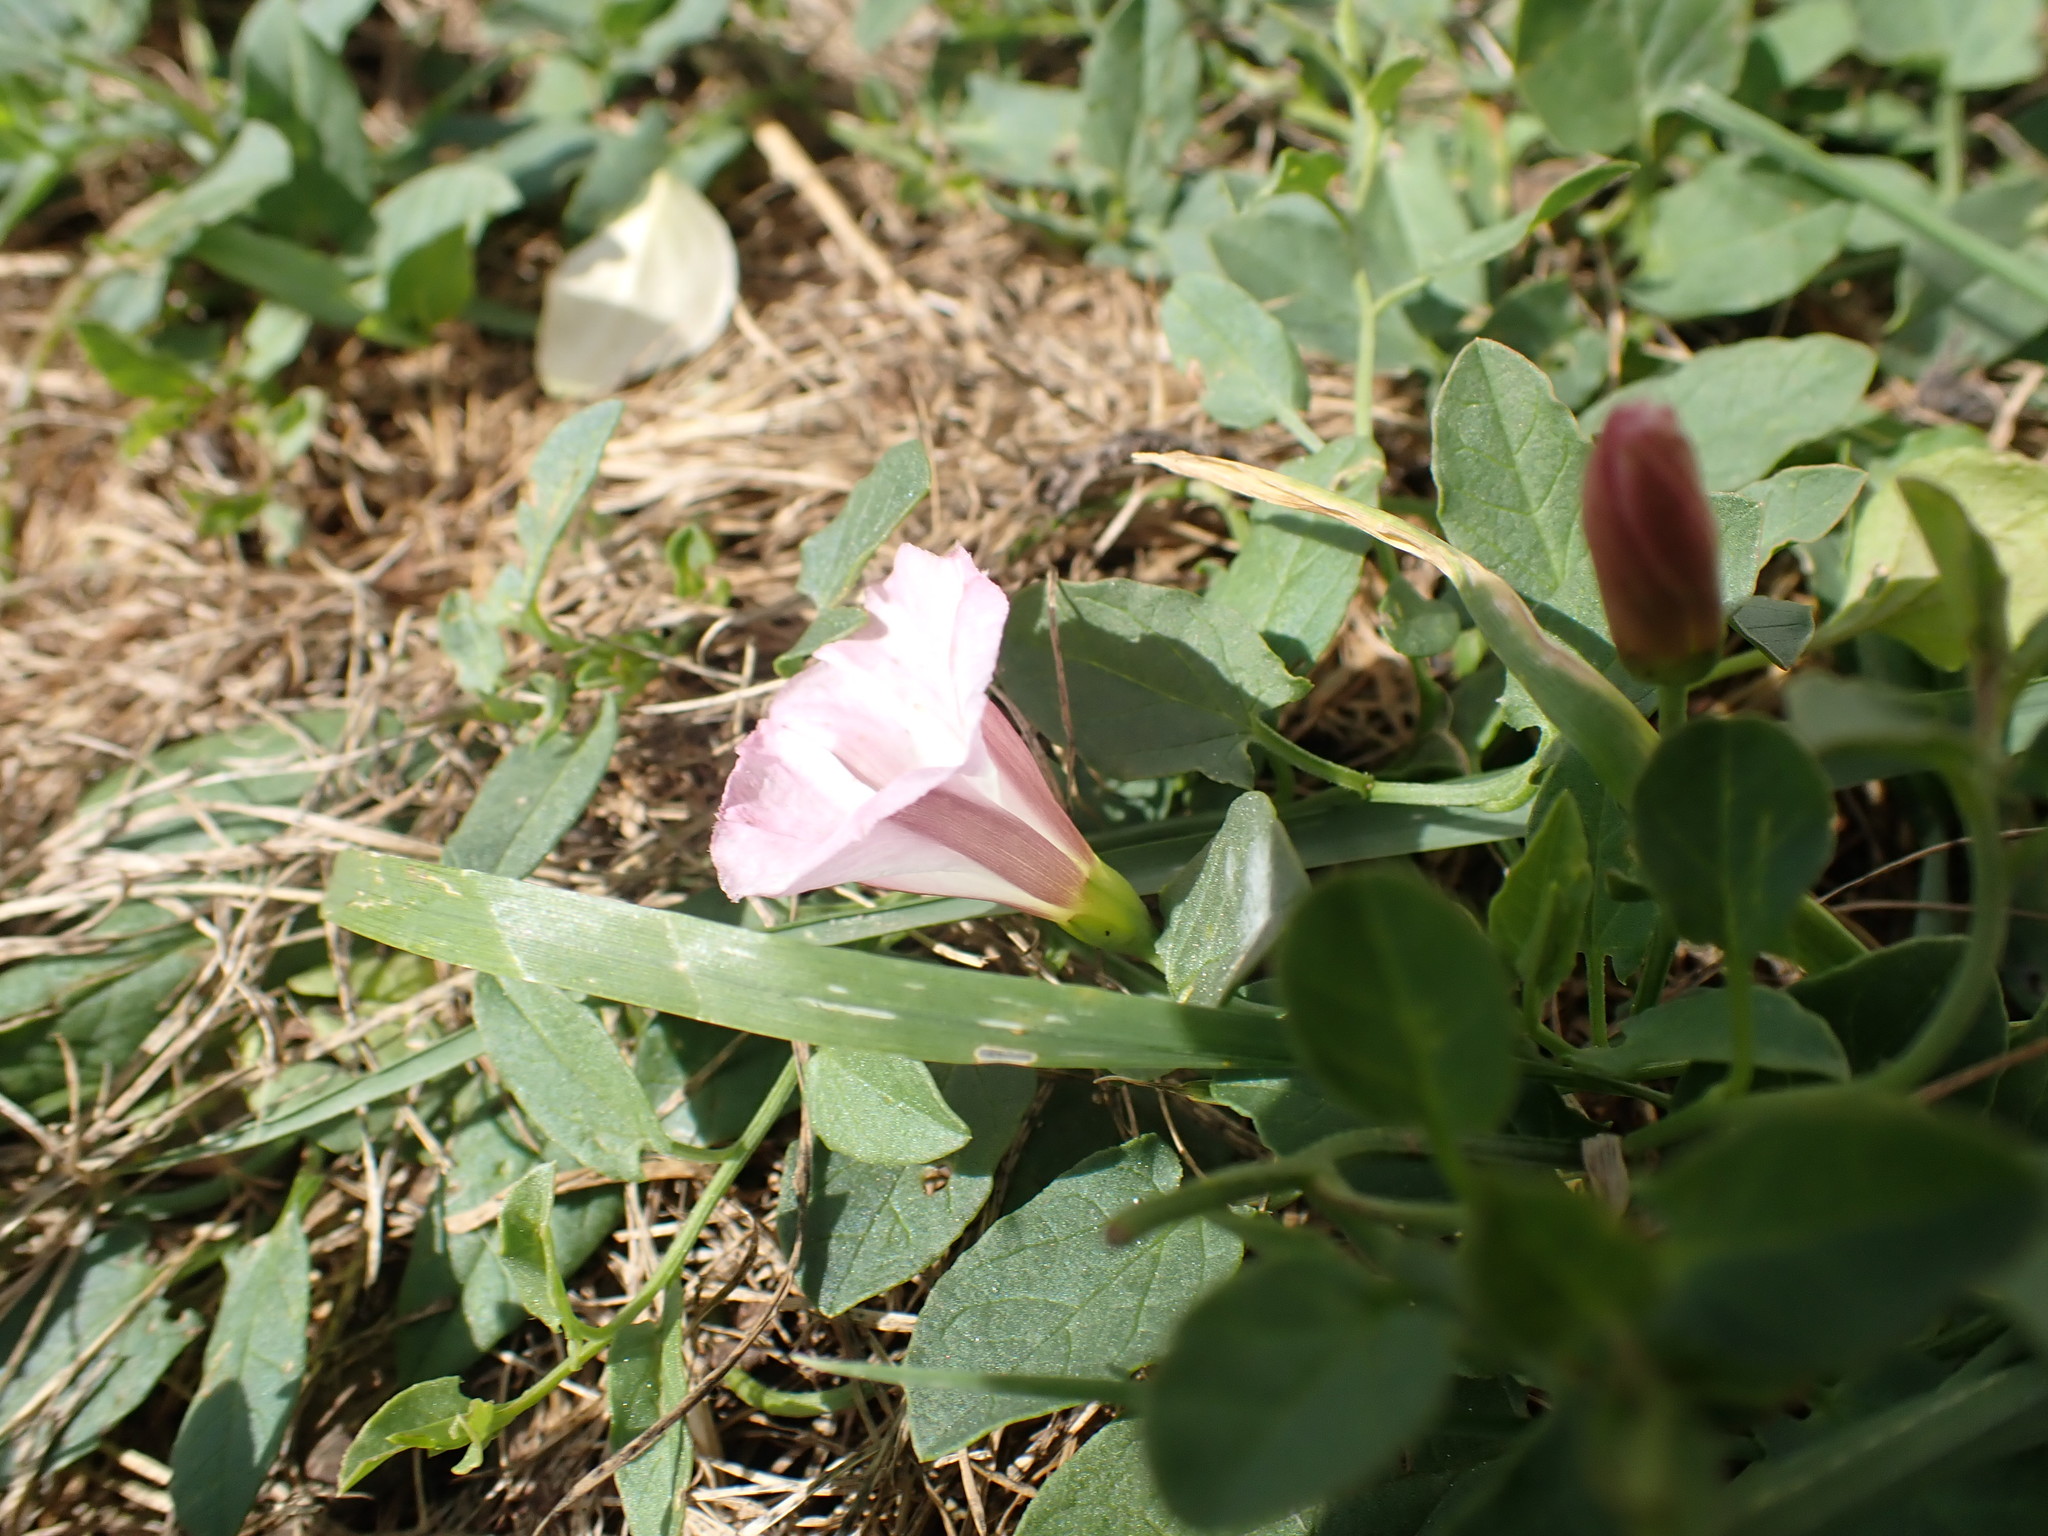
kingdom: Plantae
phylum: Tracheophyta
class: Magnoliopsida
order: Solanales
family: Convolvulaceae
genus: Convolvulus
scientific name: Convolvulus arvensis
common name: Field bindweed
